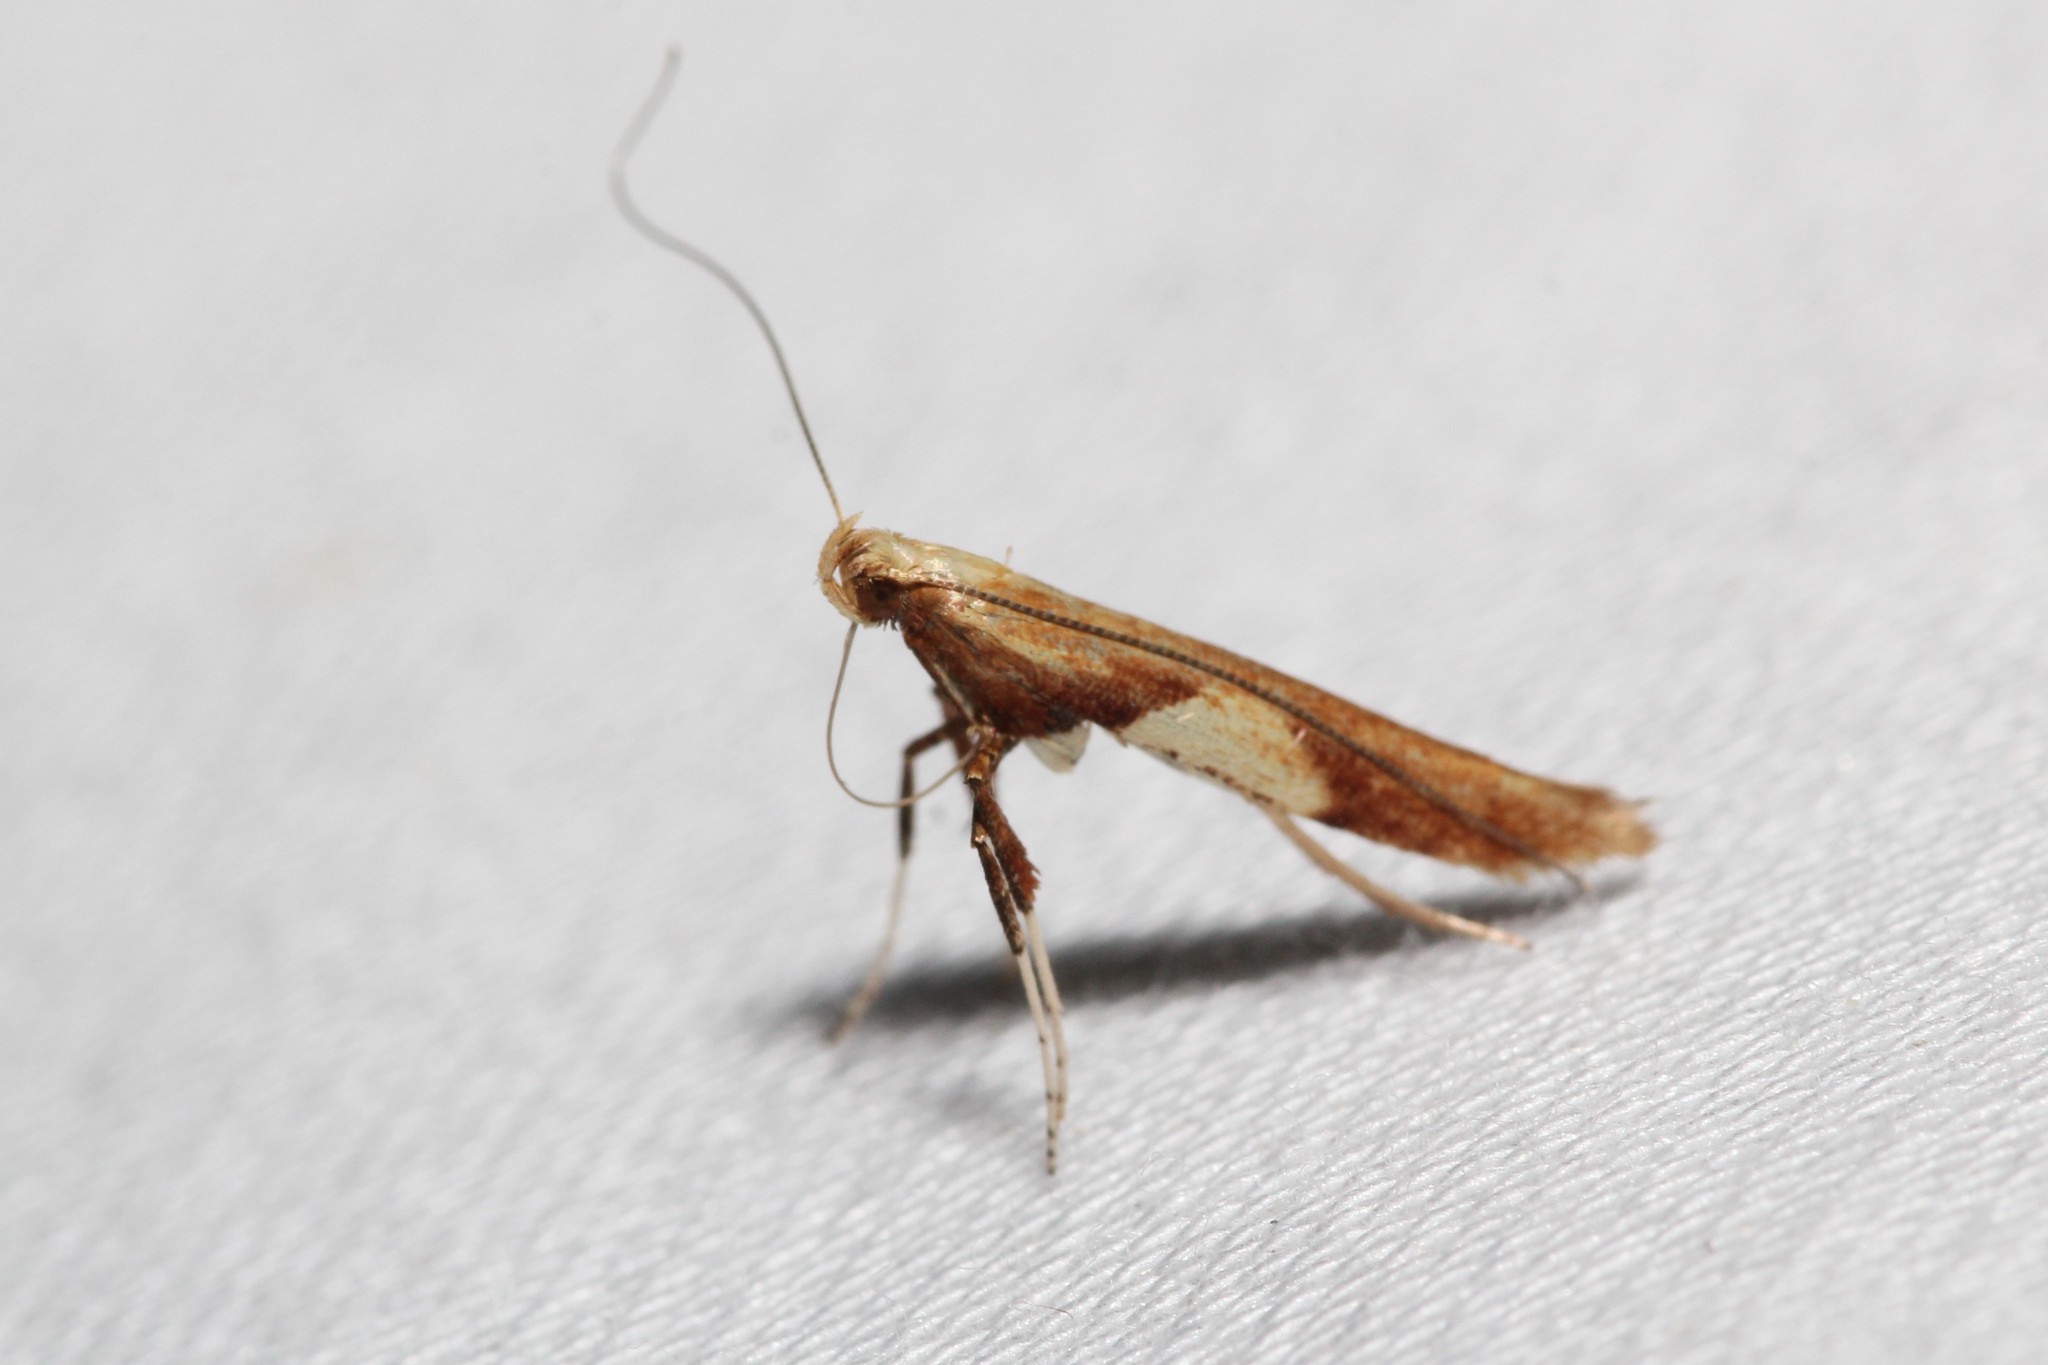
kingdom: Animalia
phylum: Arthropoda
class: Insecta
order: Lepidoptera
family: Gracillariidae
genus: Caloptilia
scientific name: Caloptilia packardella
